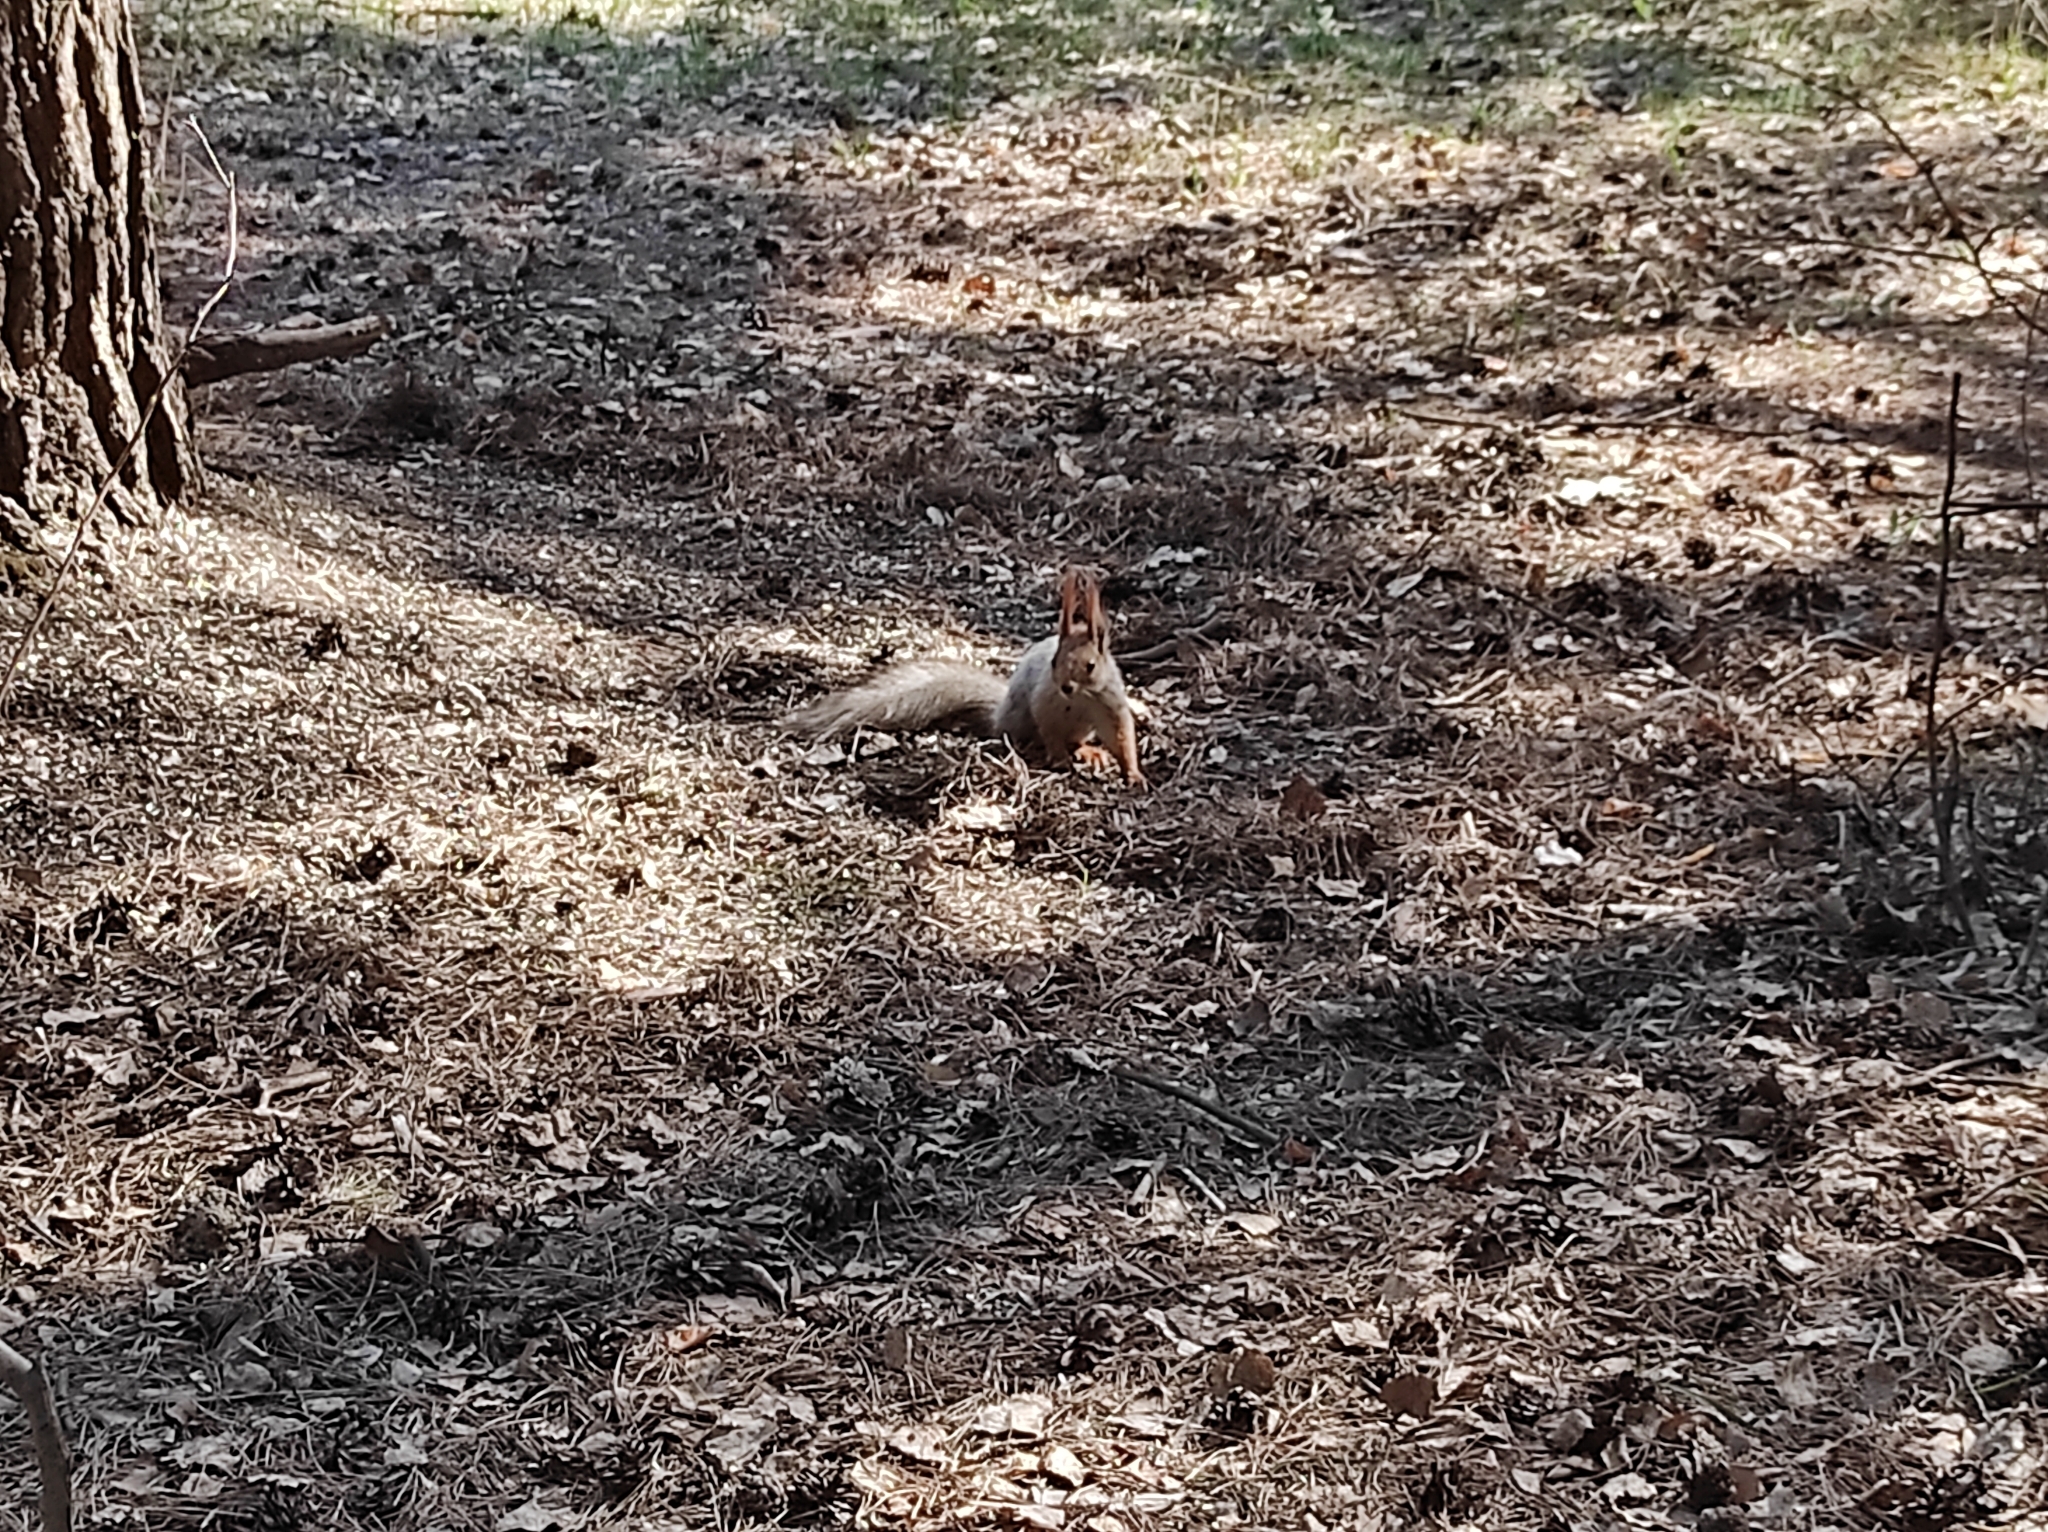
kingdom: Animalia
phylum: Chordata
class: Mammalia
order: Rodentia
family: Sciuridae
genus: Sciurus
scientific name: Sciurus vulgaris
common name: Eurasian red squirrel
